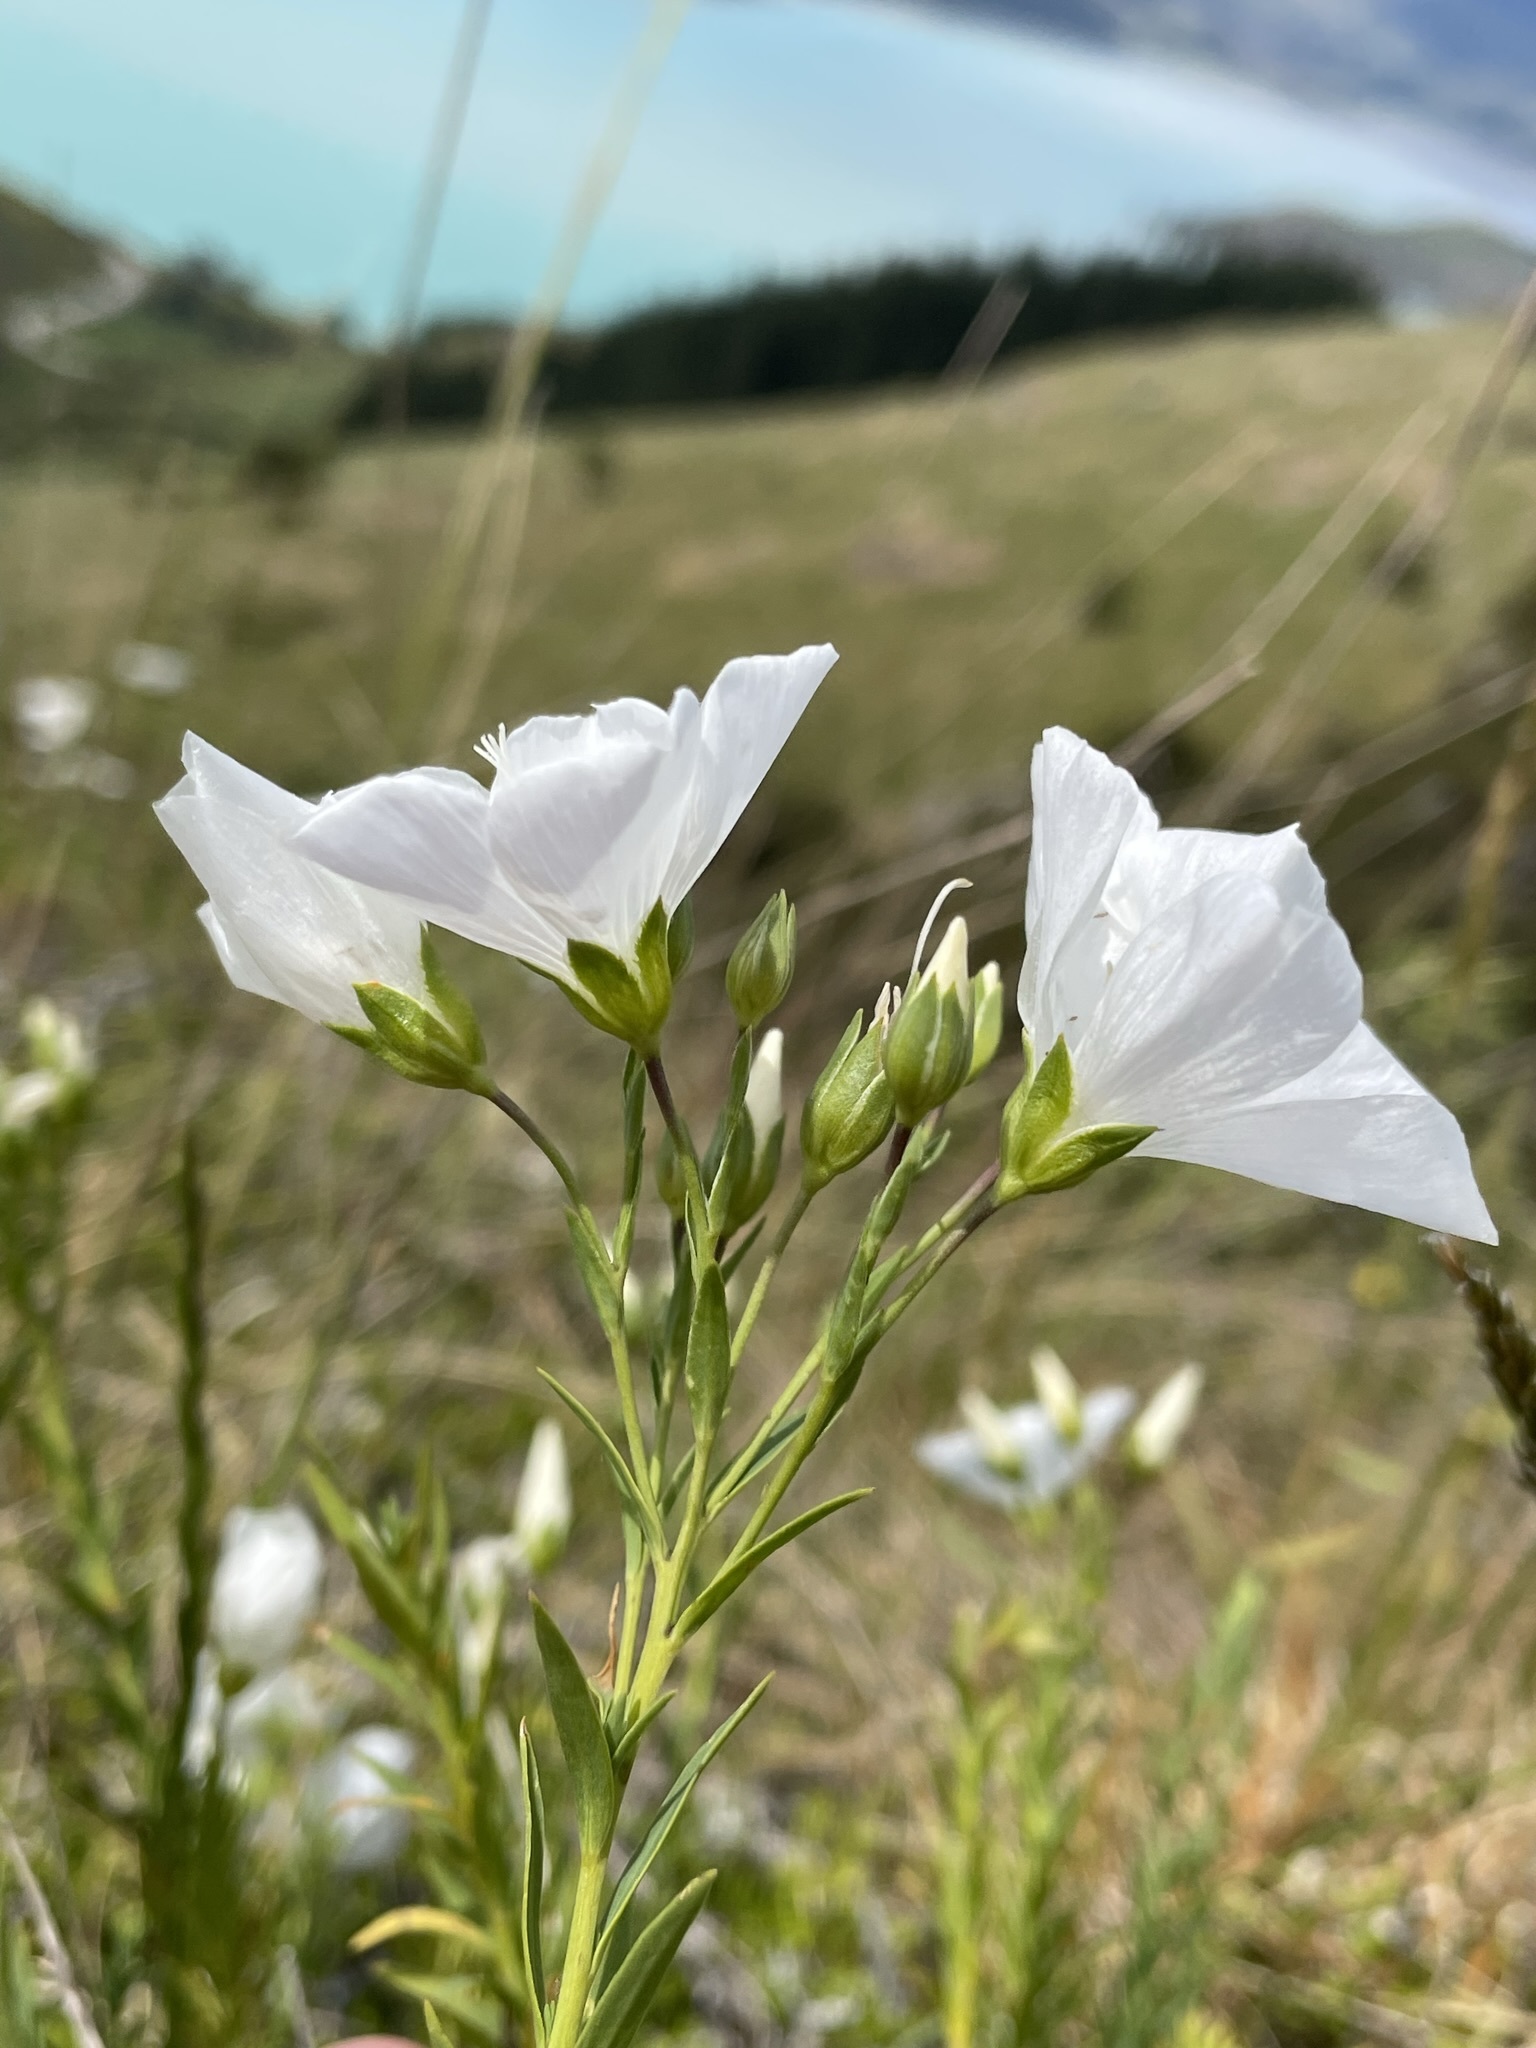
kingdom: Plantae
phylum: Tracheophyta
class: Magnoliopsida
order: Malpighiales
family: Linaceae
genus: Linum
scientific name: Linum monogynum
